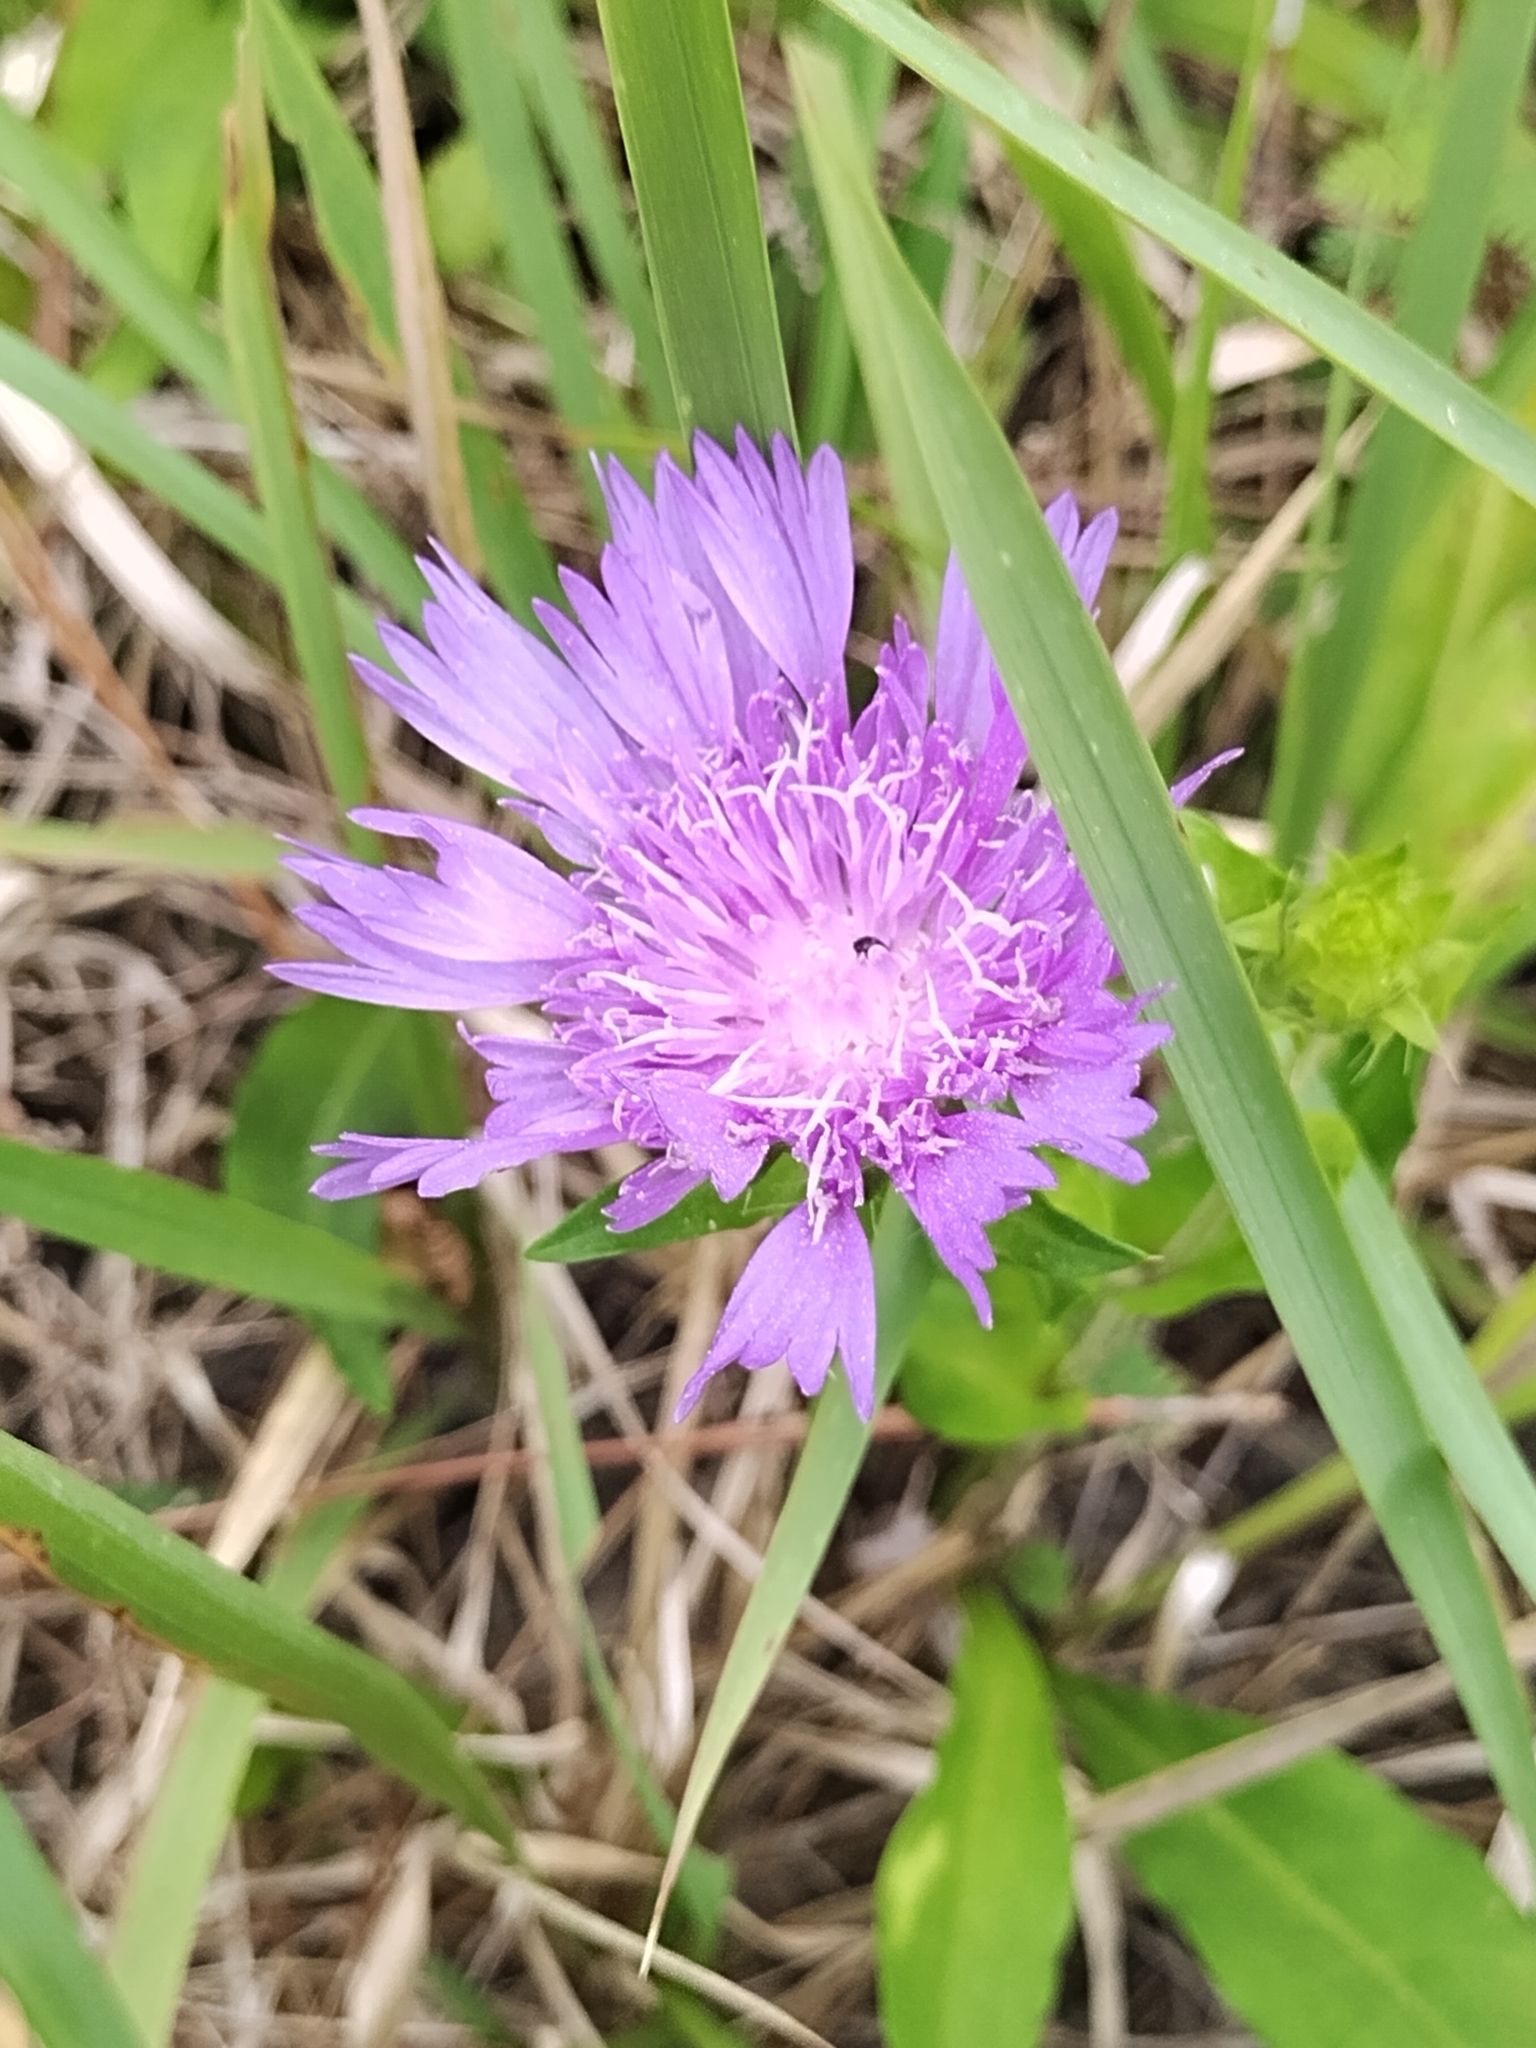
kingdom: Plantae
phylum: Tracheophyta
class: Magnoliopsida
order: Asterales
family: Asteraceae
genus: Stokesia
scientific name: Stokesia laevis
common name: Stokes'-aster
